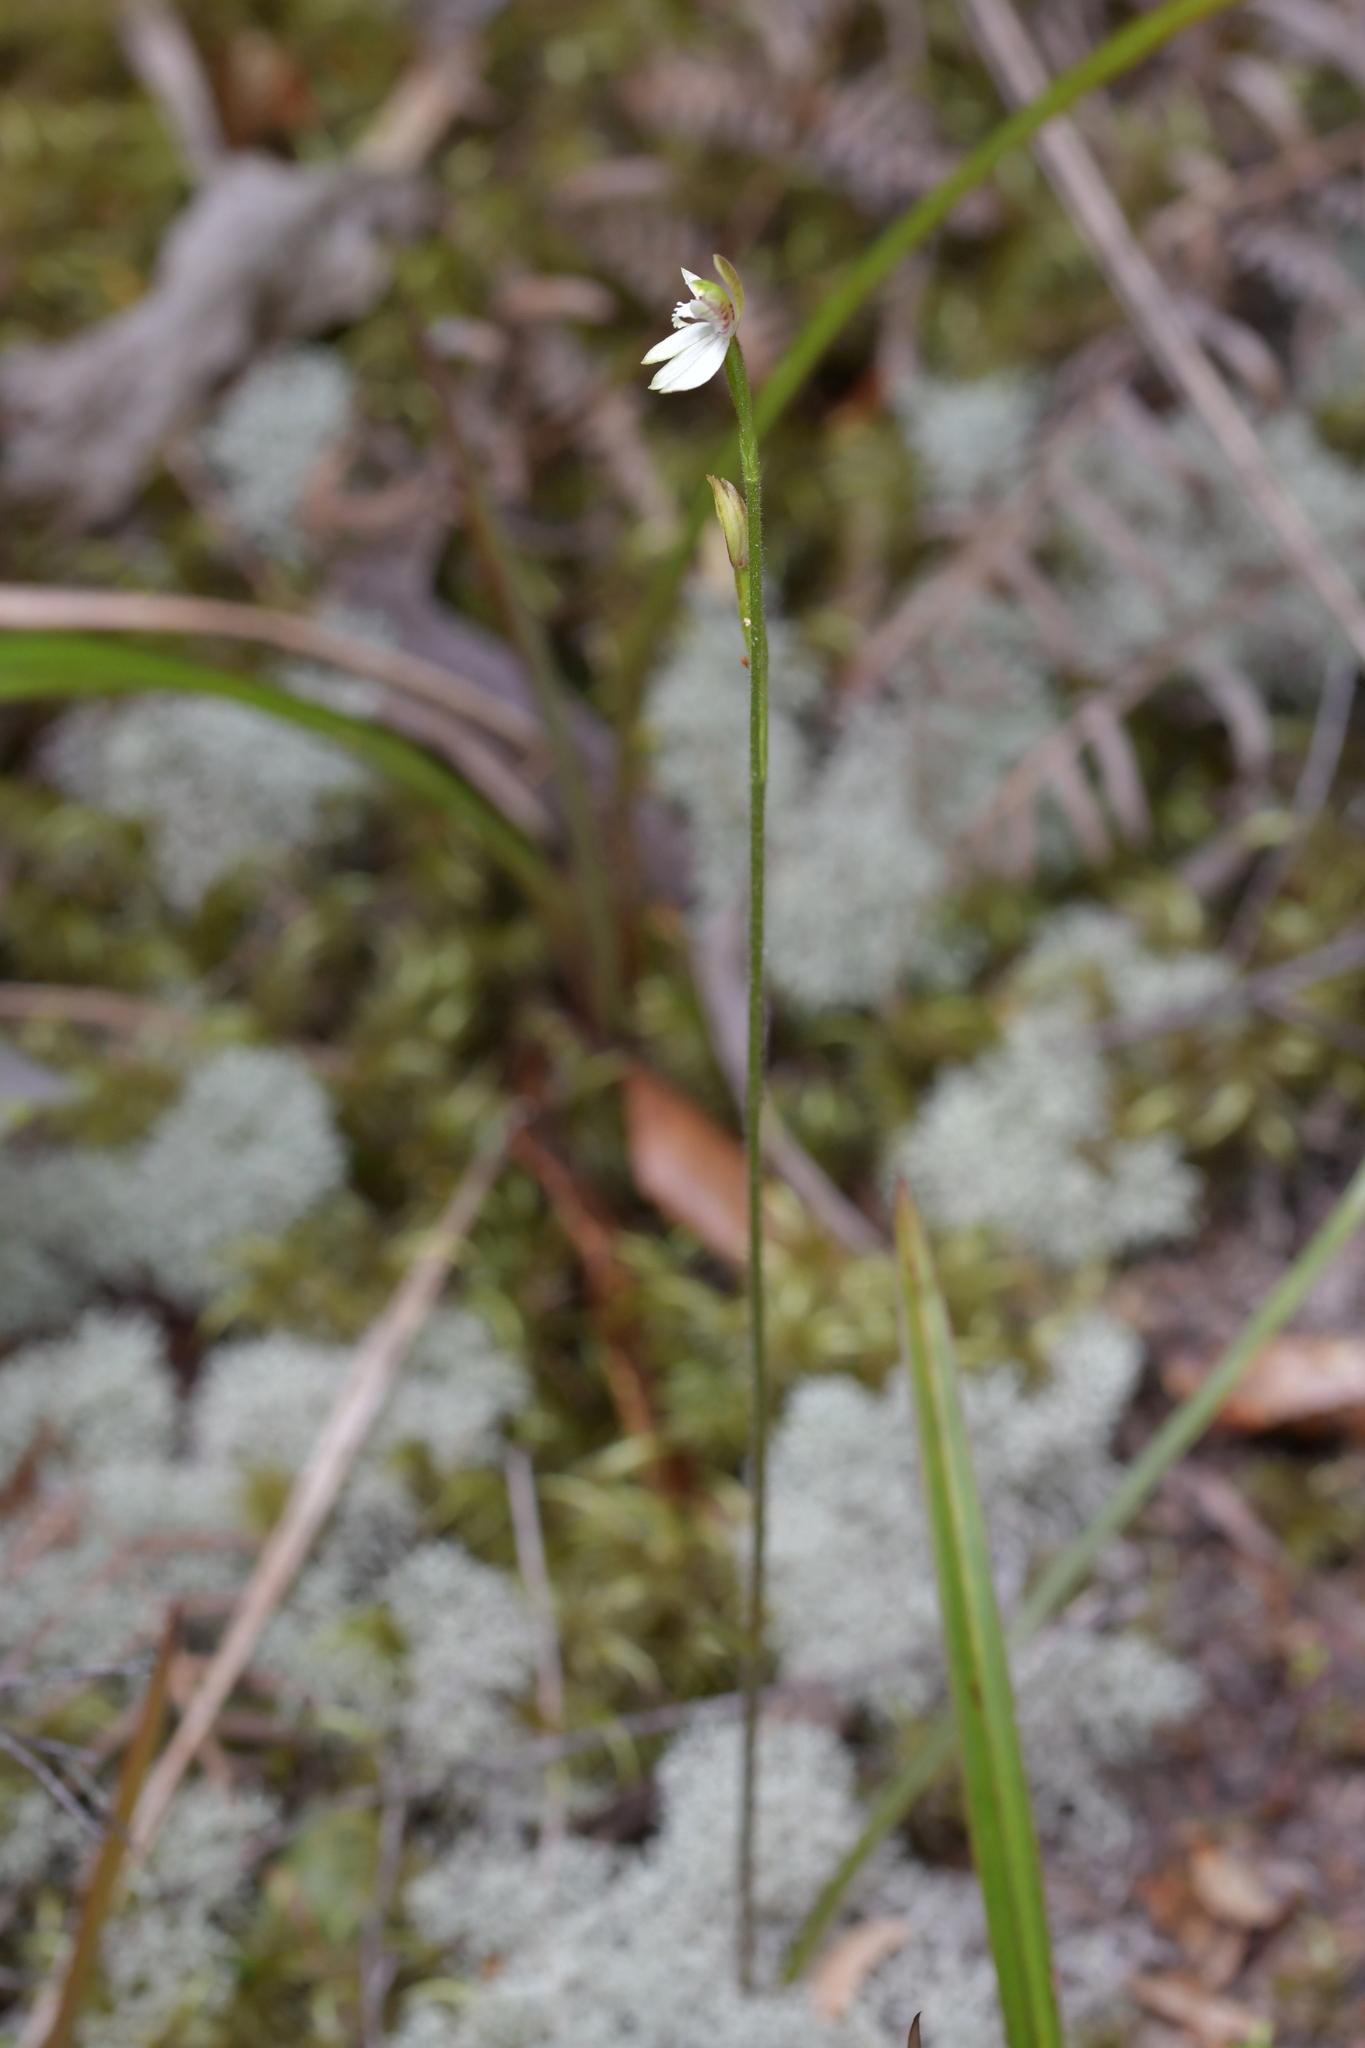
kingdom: Plantae
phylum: Tracheophyta
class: Liliopsida
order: Asparagales
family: Orchidaceae
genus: Caladenia
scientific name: Caladenia chlorostyla
